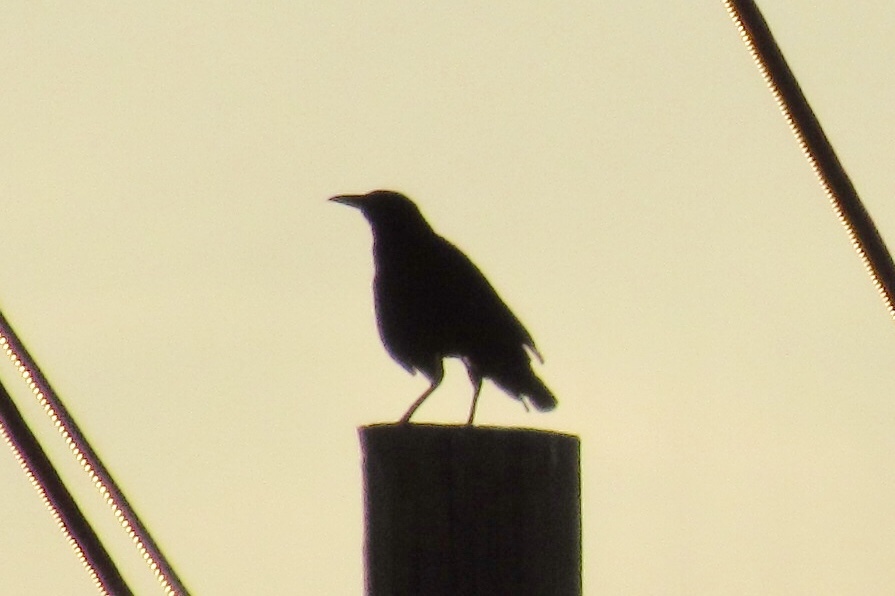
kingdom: Animalia
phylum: Chordata
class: Aves
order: Passeriformes
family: Icteridae
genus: Quiscalus
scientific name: Quiscalus mexicanus
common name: Great-tailed grackle
